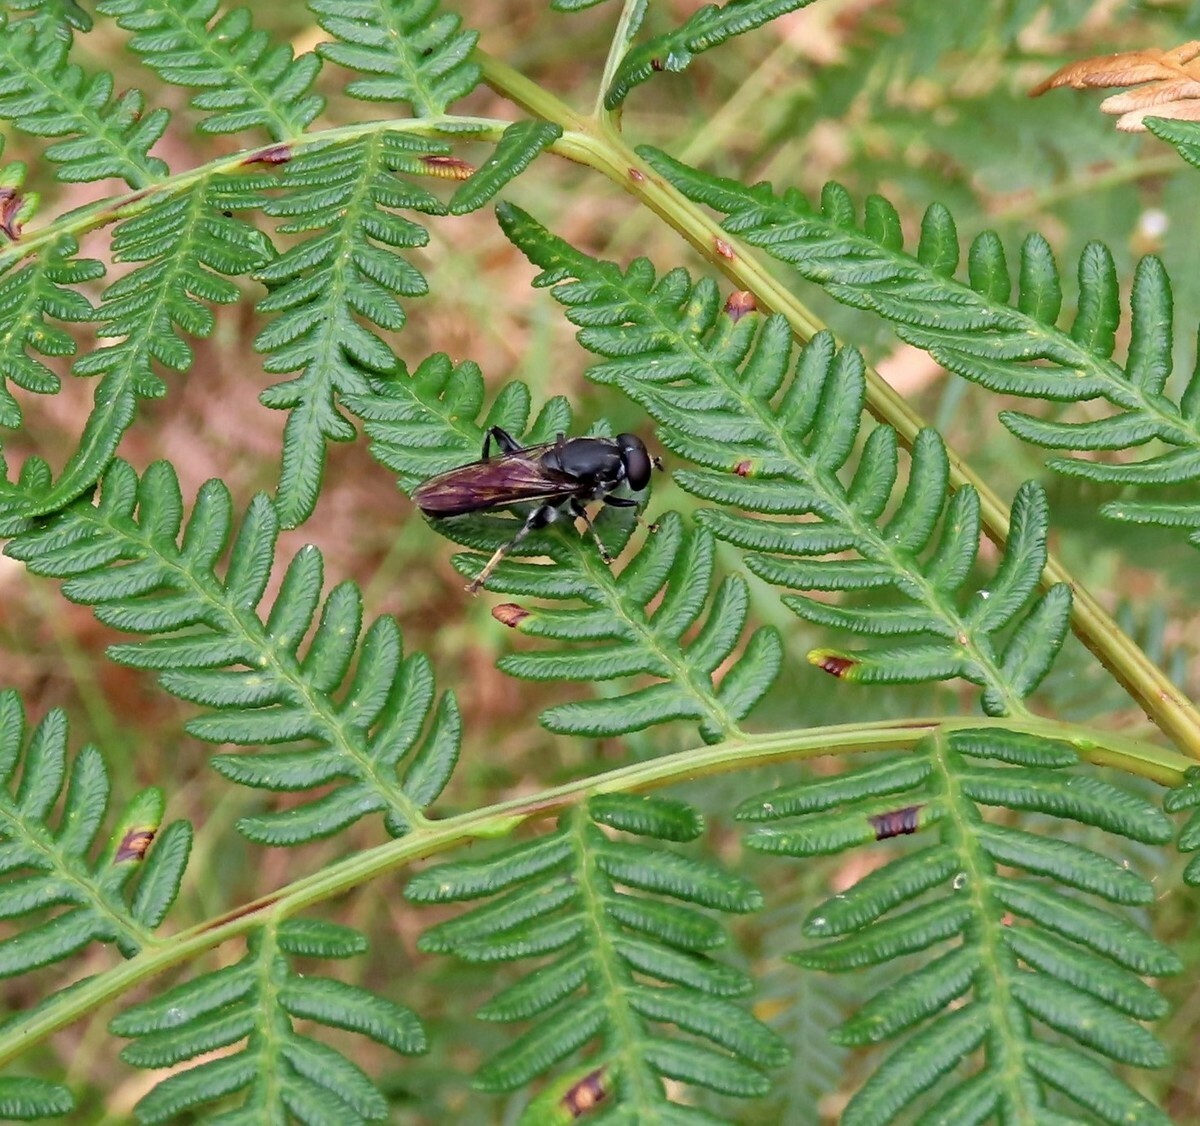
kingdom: Animalia
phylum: Arthropoda
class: Insecta
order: Diptera
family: Syrphidae
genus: Xylota
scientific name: Xylota flavitarsis
